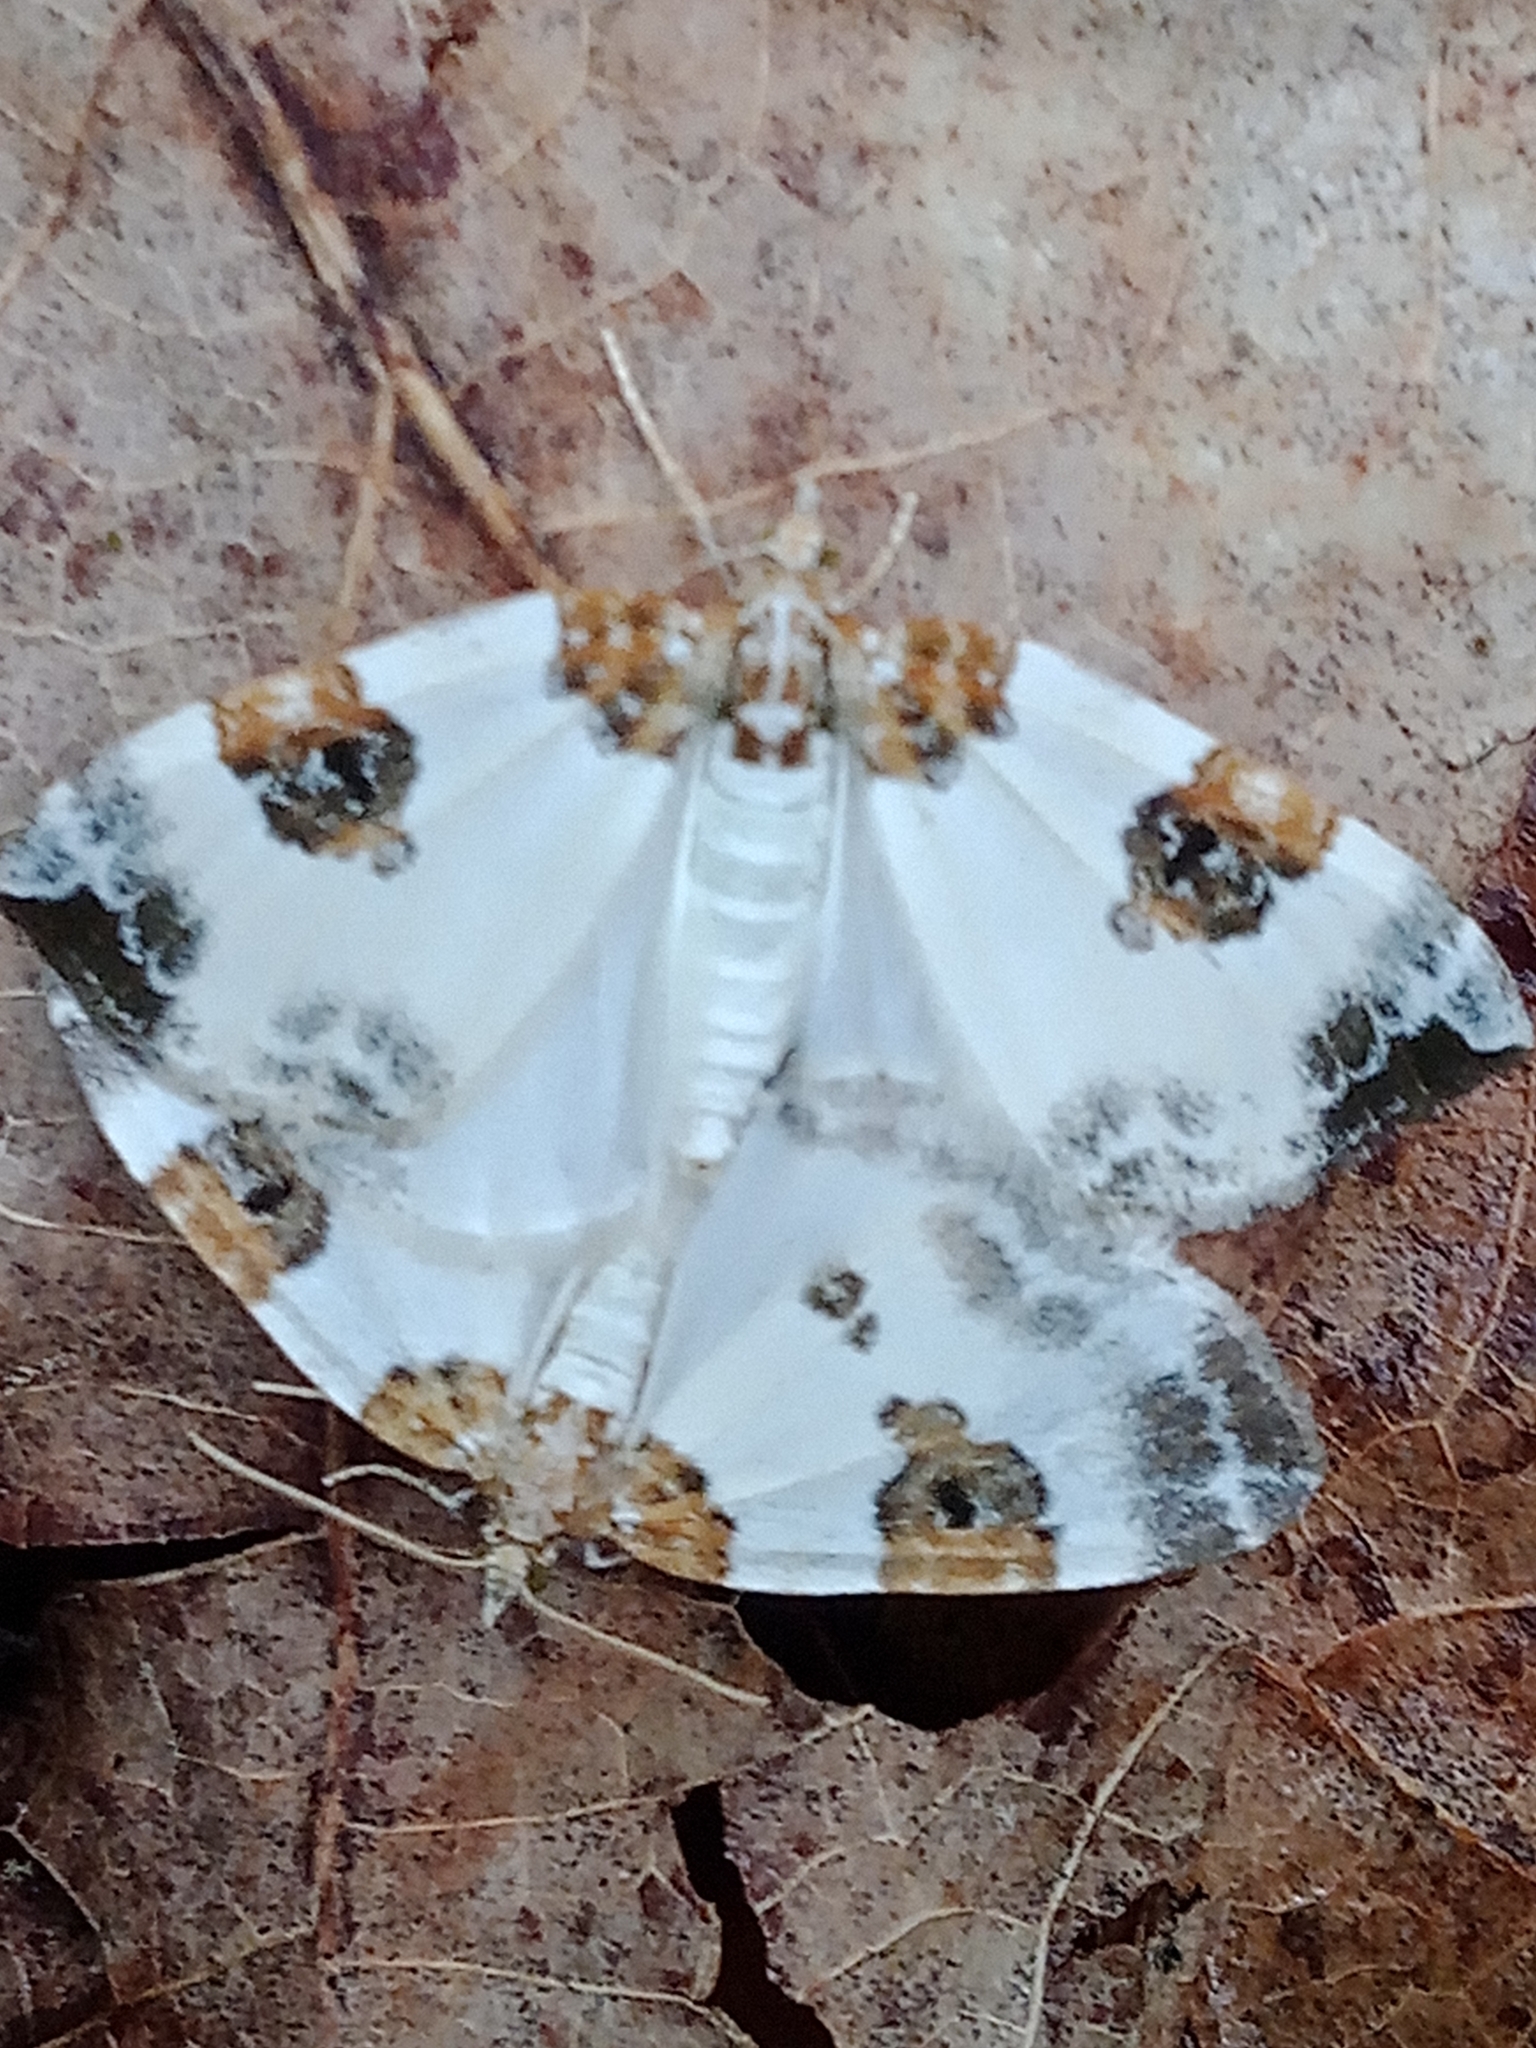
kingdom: Animalia
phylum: Arthropoda
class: Insecta
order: Lepidoptera
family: Geometridae
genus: Plemyria
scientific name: Plemyria rubiginata
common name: Blue-bordered carpet
